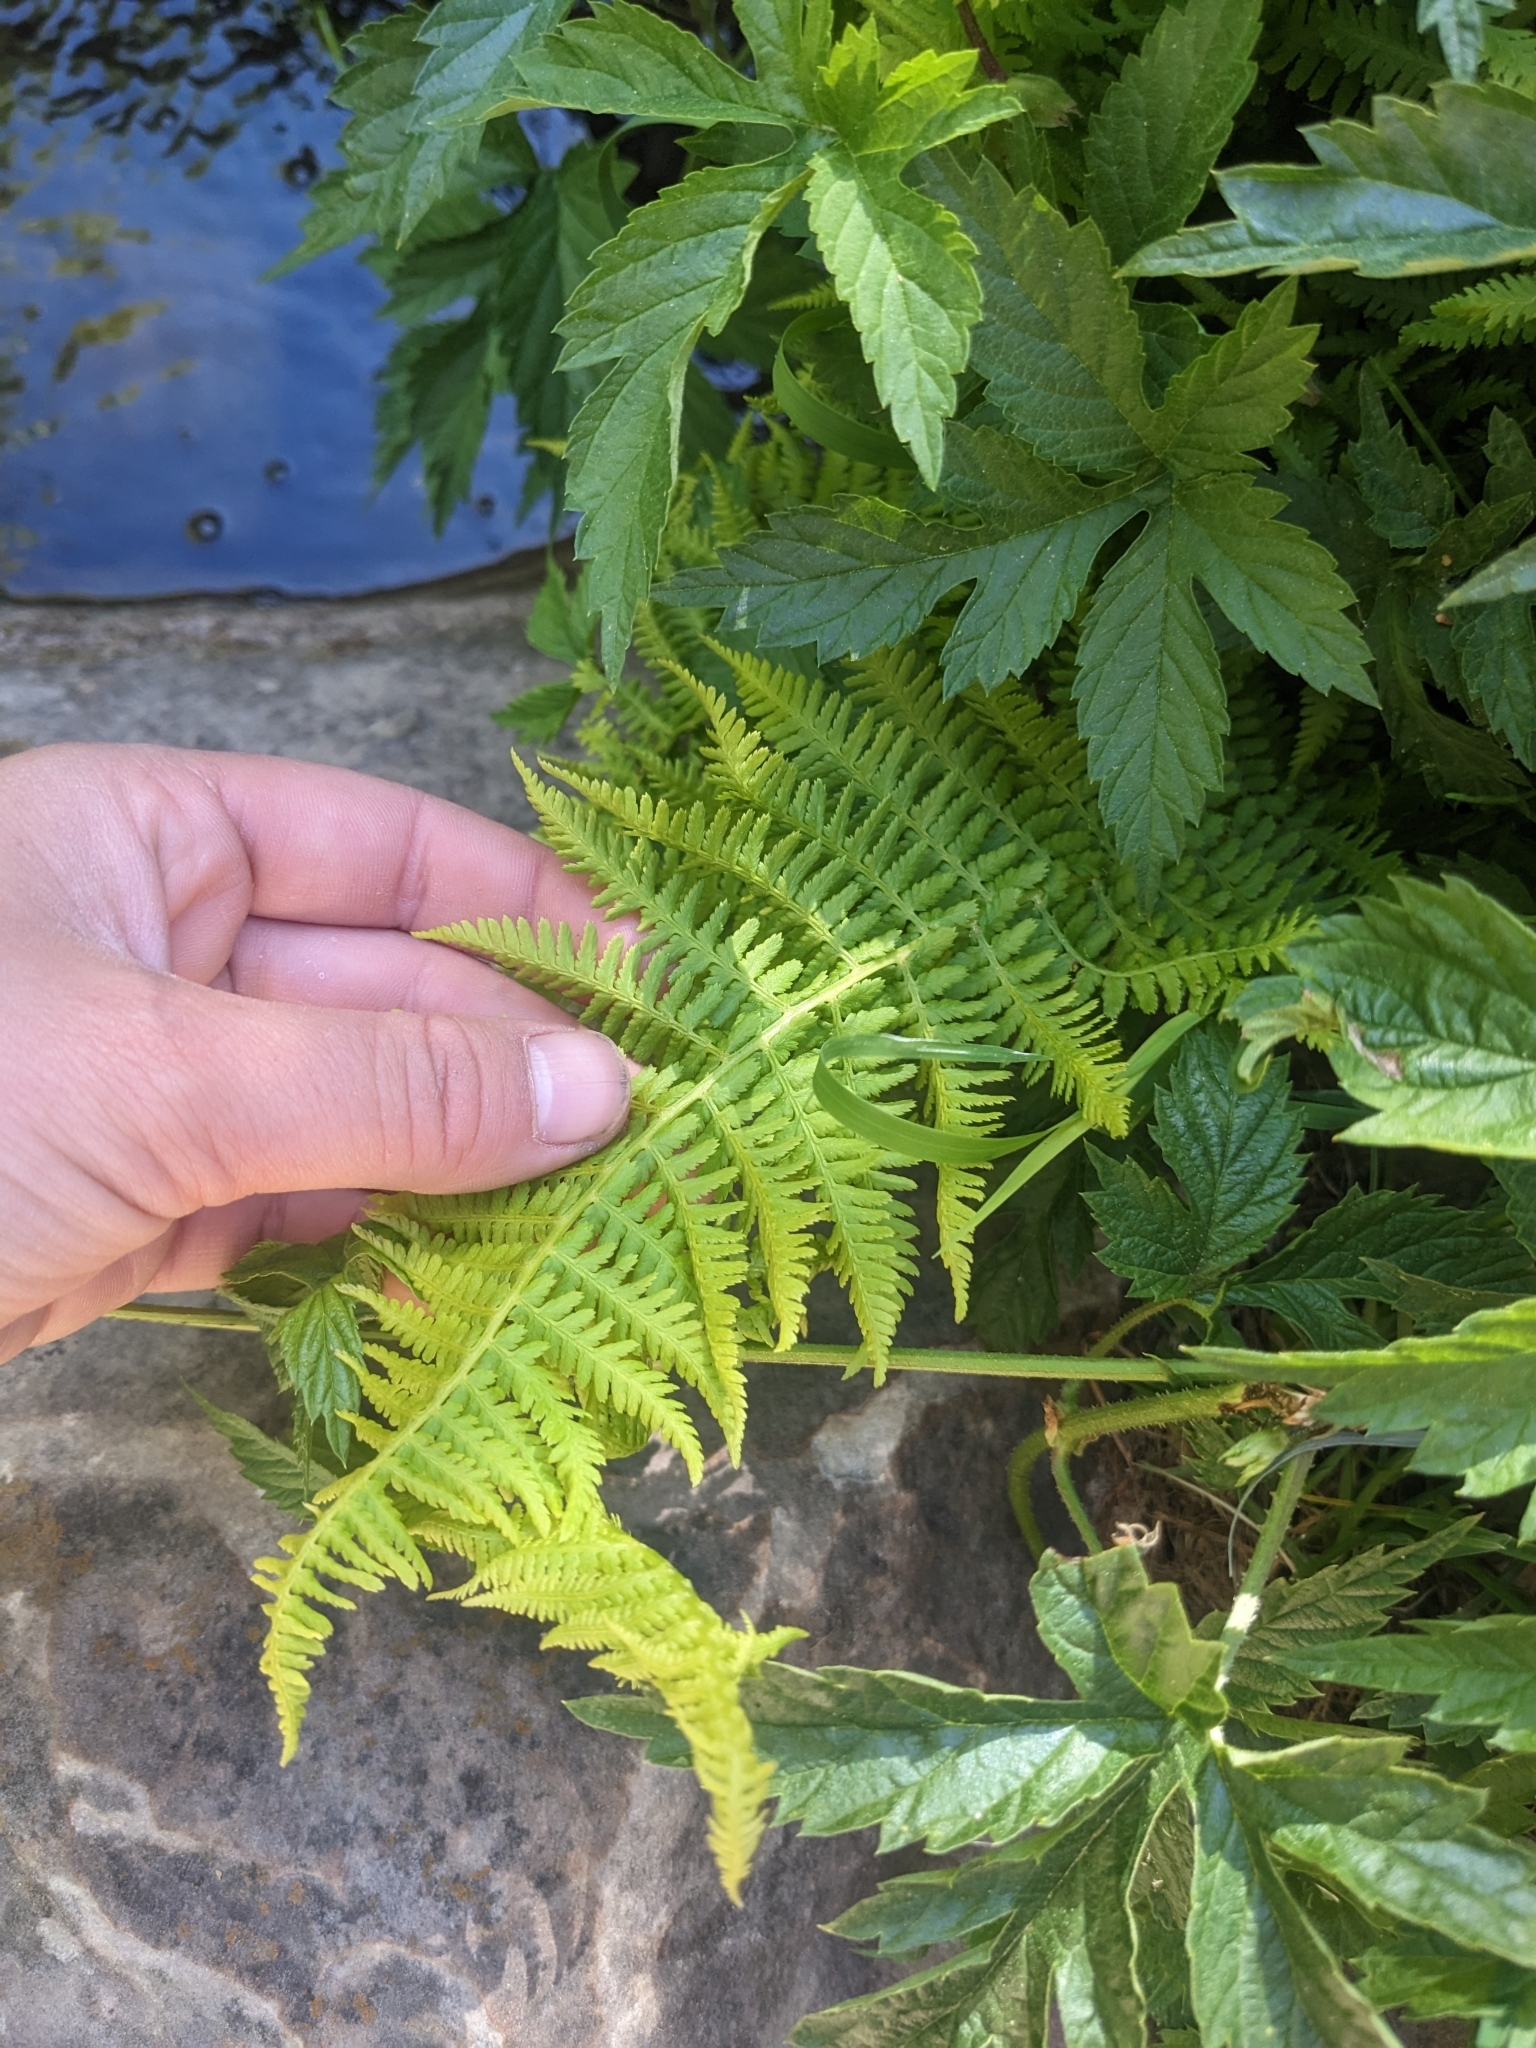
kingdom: Plantae
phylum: Tracheophyta
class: Polypodiopsida
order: Polypodiales
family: Athyriaceae
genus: Athyrium
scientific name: Athyrium filix-femina
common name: Lady fern
